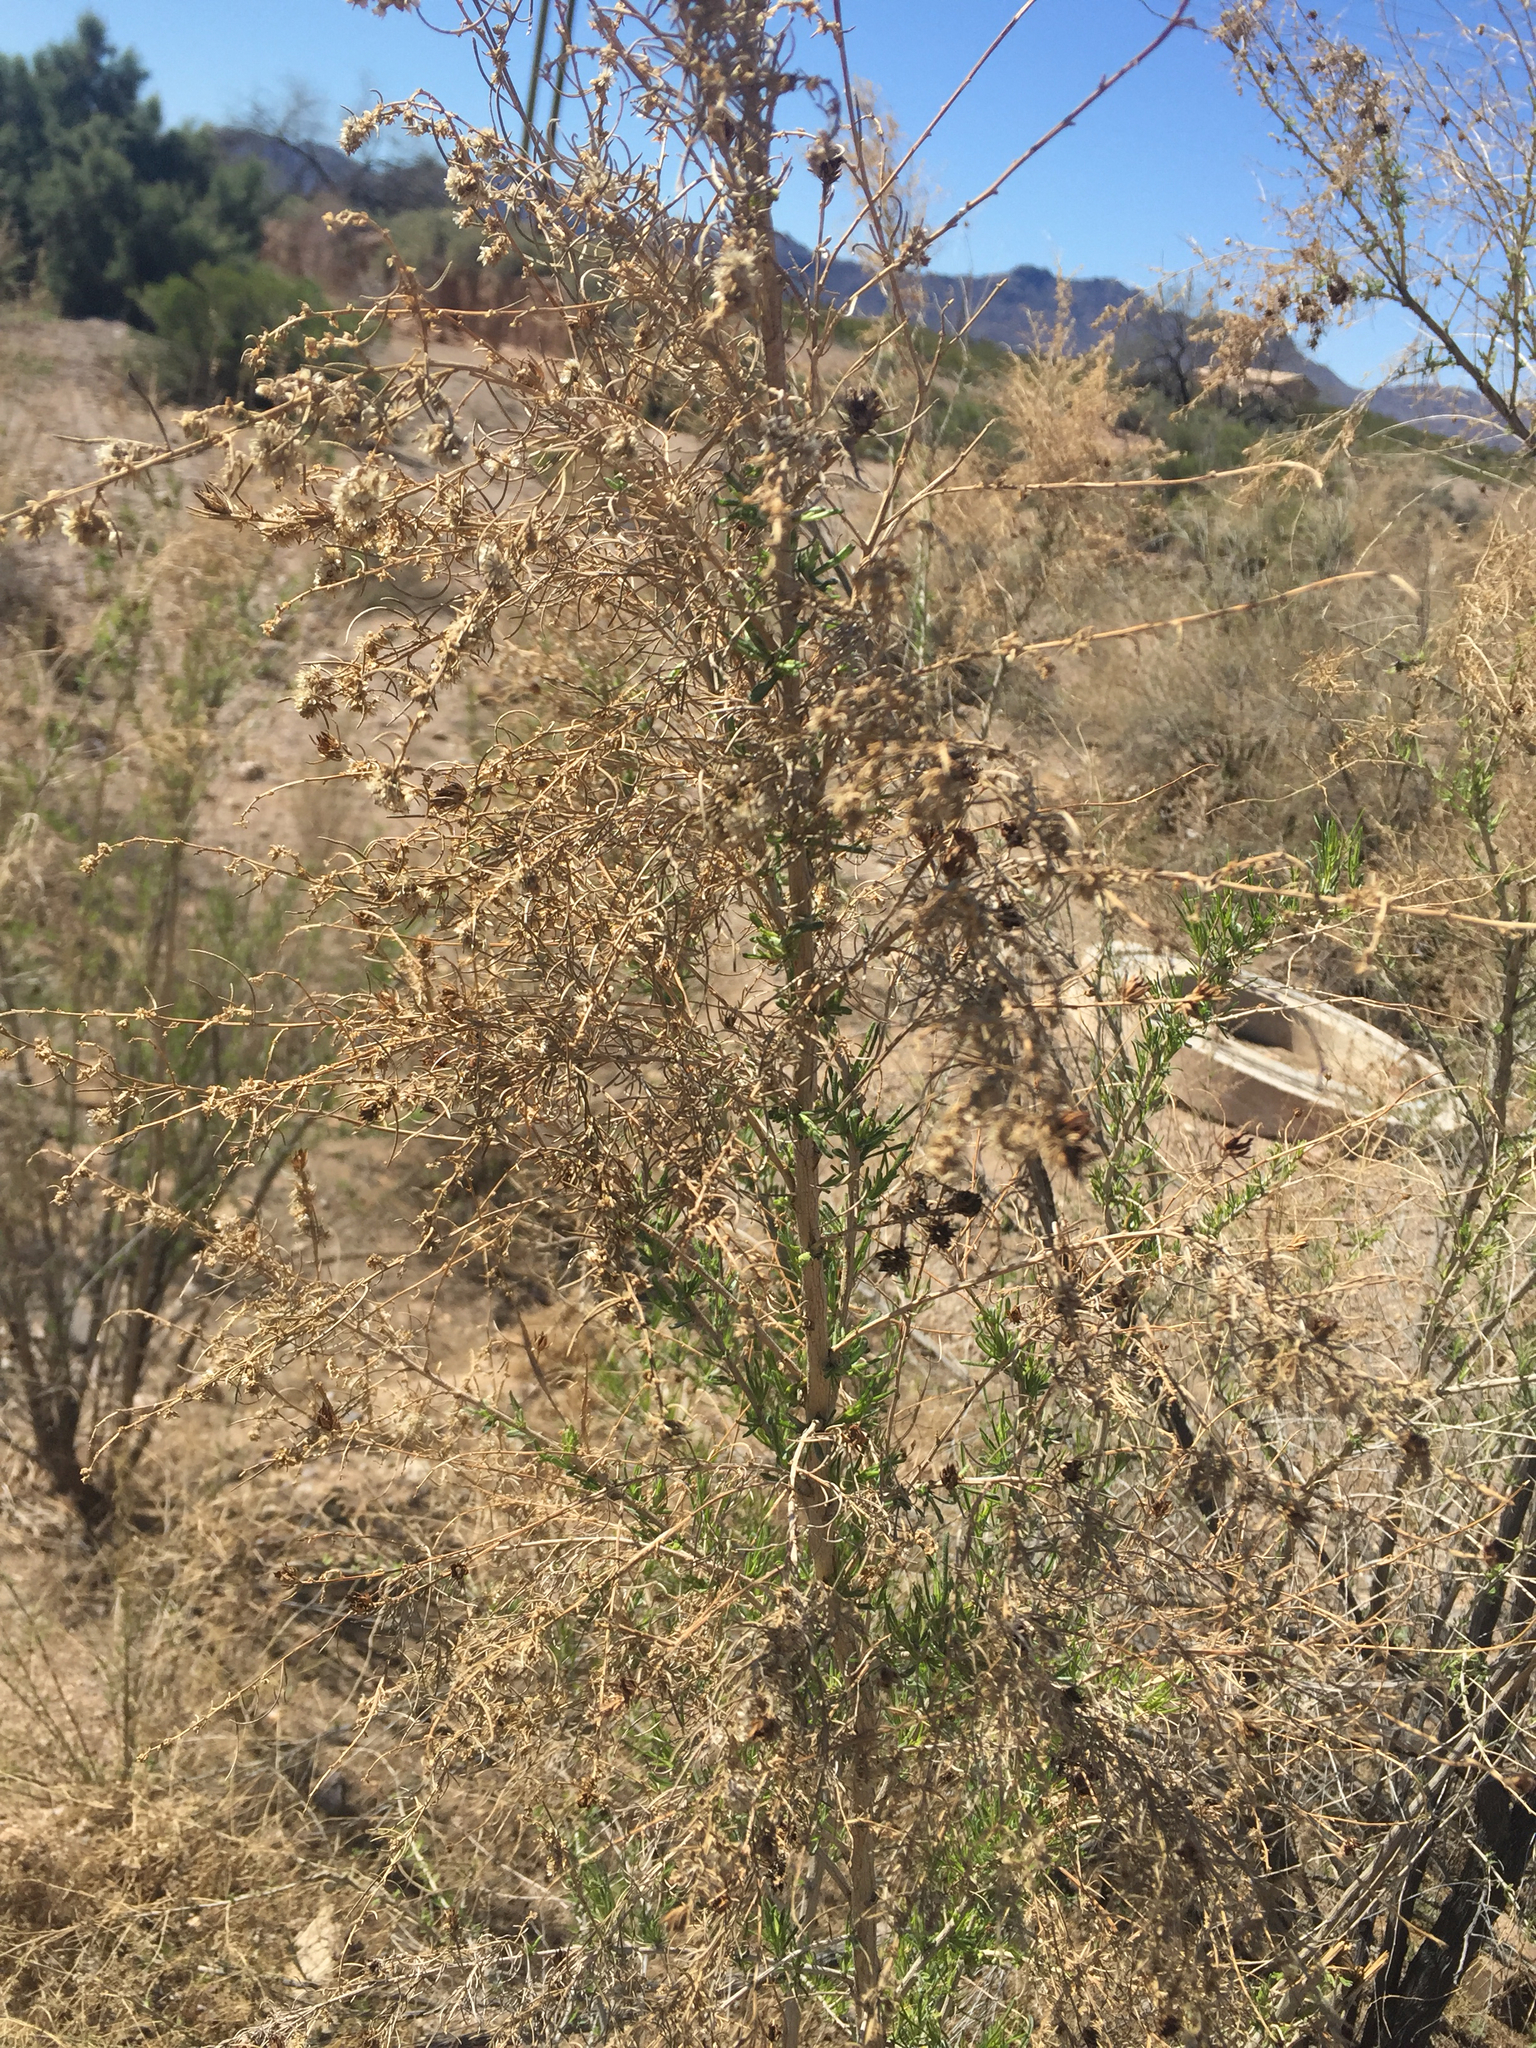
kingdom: Plantae
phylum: Tracheophyta
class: Magnoliopsida
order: Asterales
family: Asteraceae
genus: Ambrosia
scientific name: Ambrosia monogyra
